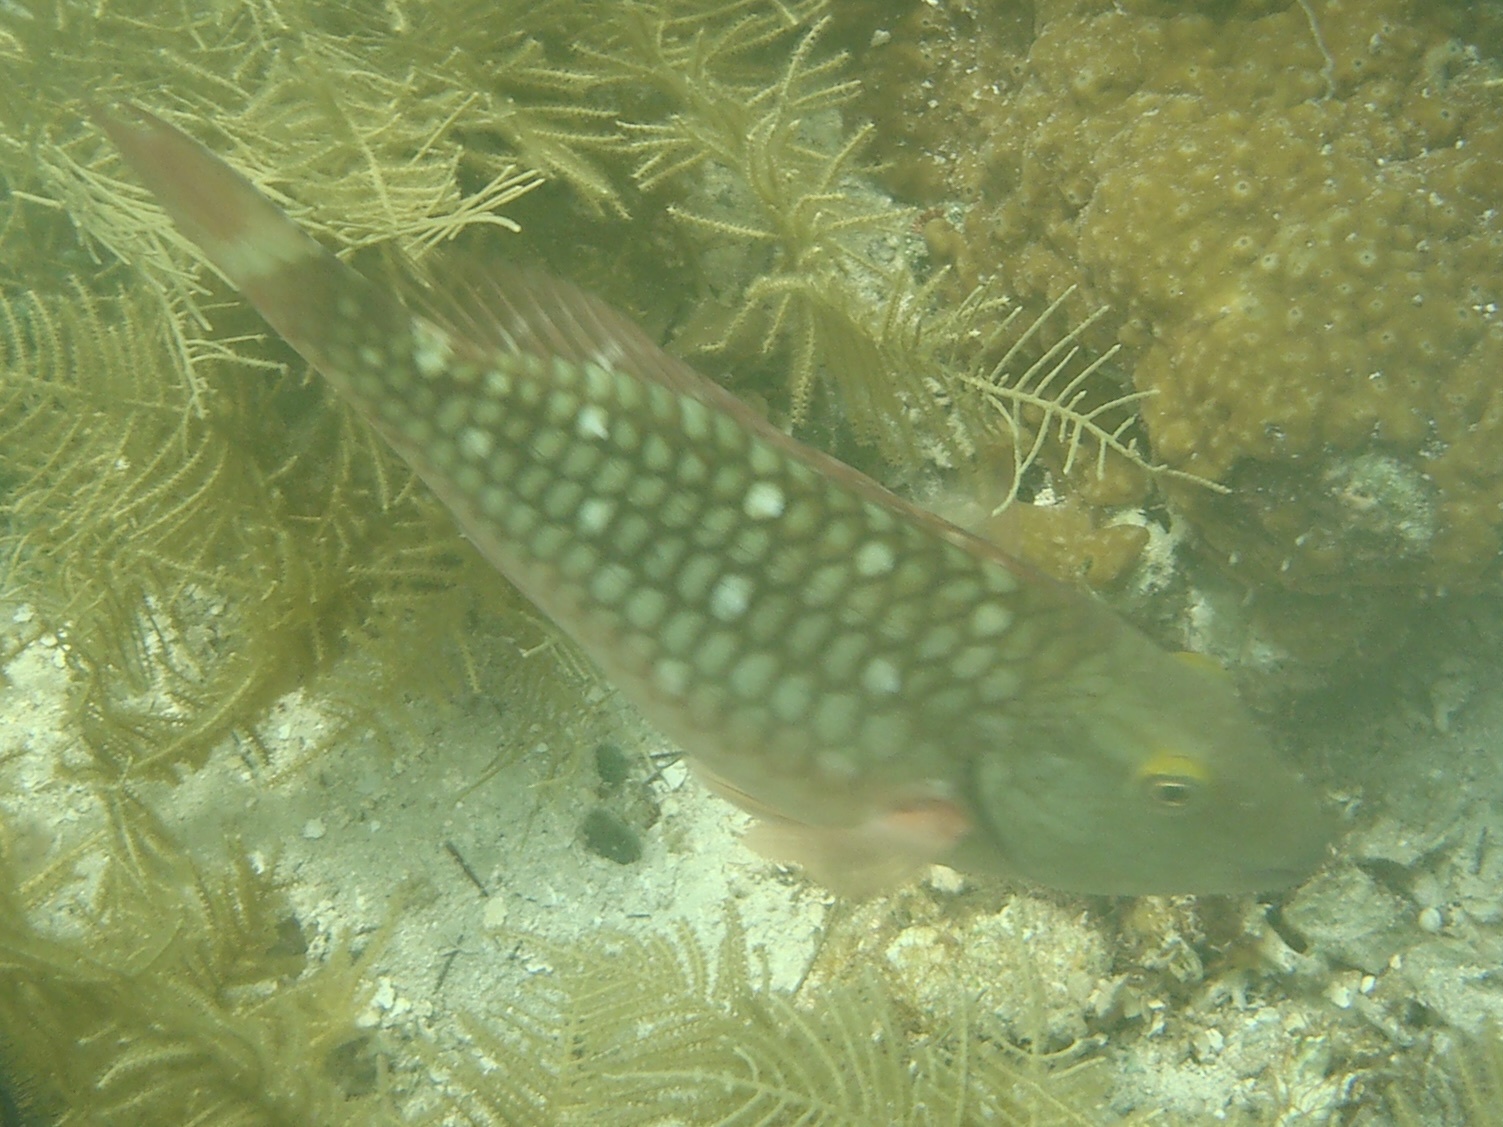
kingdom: Animalia
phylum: Chordata
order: Perciformes
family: Scaridae
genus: Sparisoma
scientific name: Sparisoma viride
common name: Stoplight parrotfish
